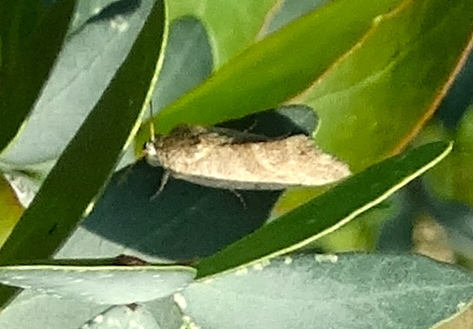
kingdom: Animalia
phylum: Arthropoda
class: Insecta
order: Lepidoptera
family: Noctuidae
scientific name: Noctuidae
